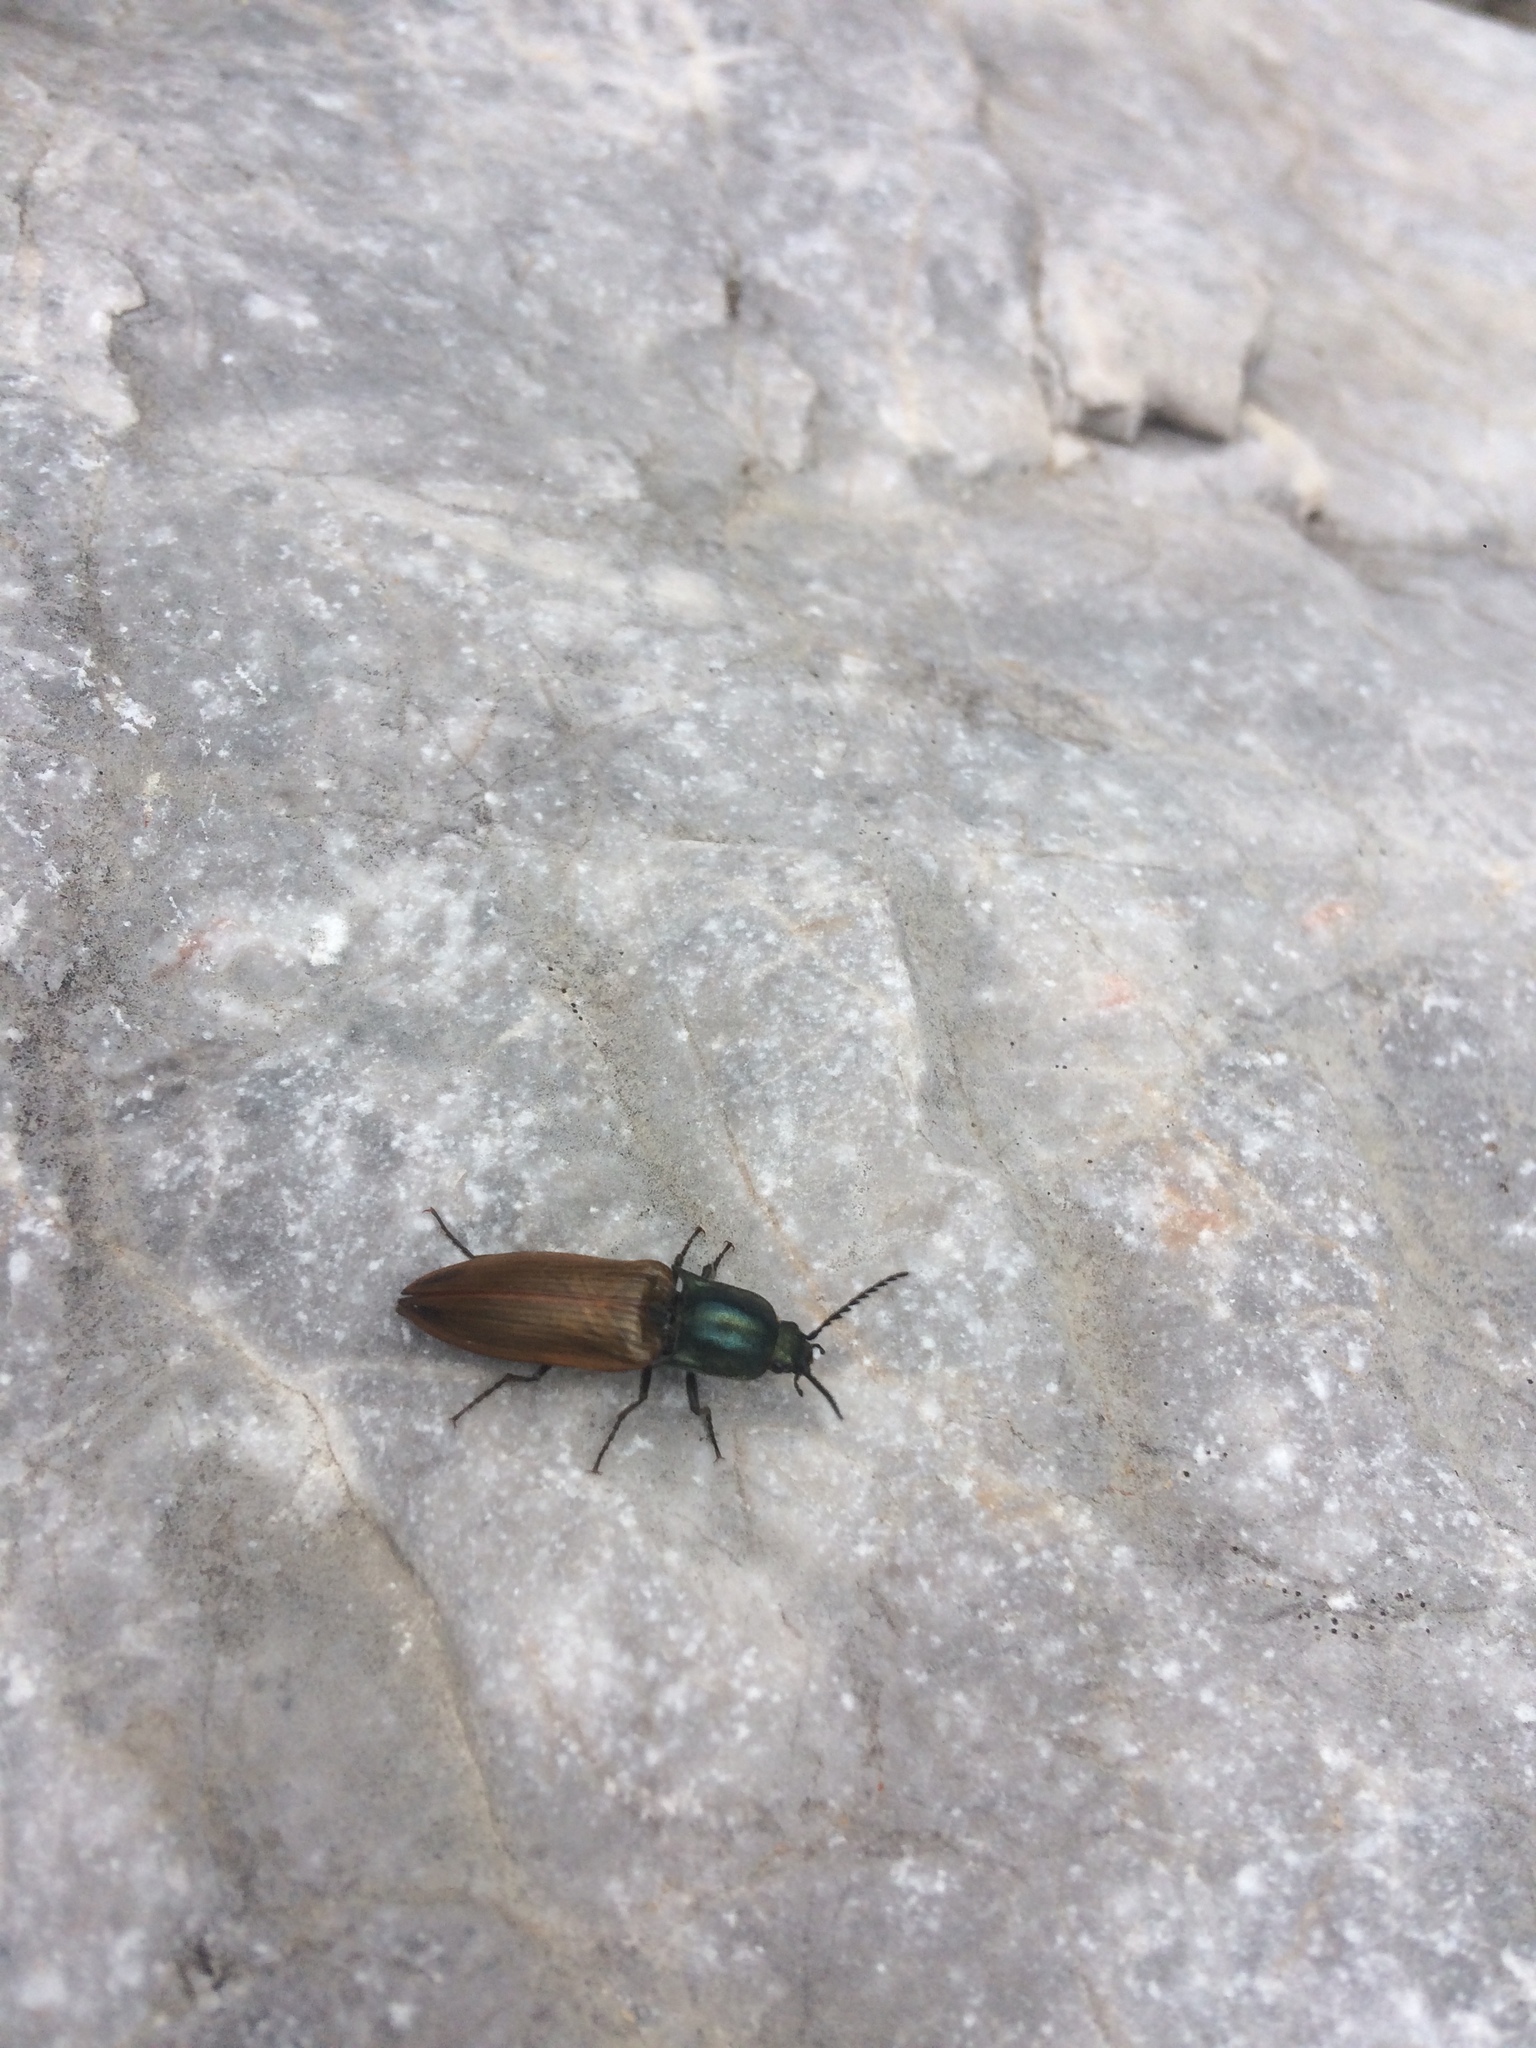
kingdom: Animalia
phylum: Arthropoda
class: Insecta
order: Coleoptera
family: Elateridae
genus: Ctenicera
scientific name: Ctenicera virens
